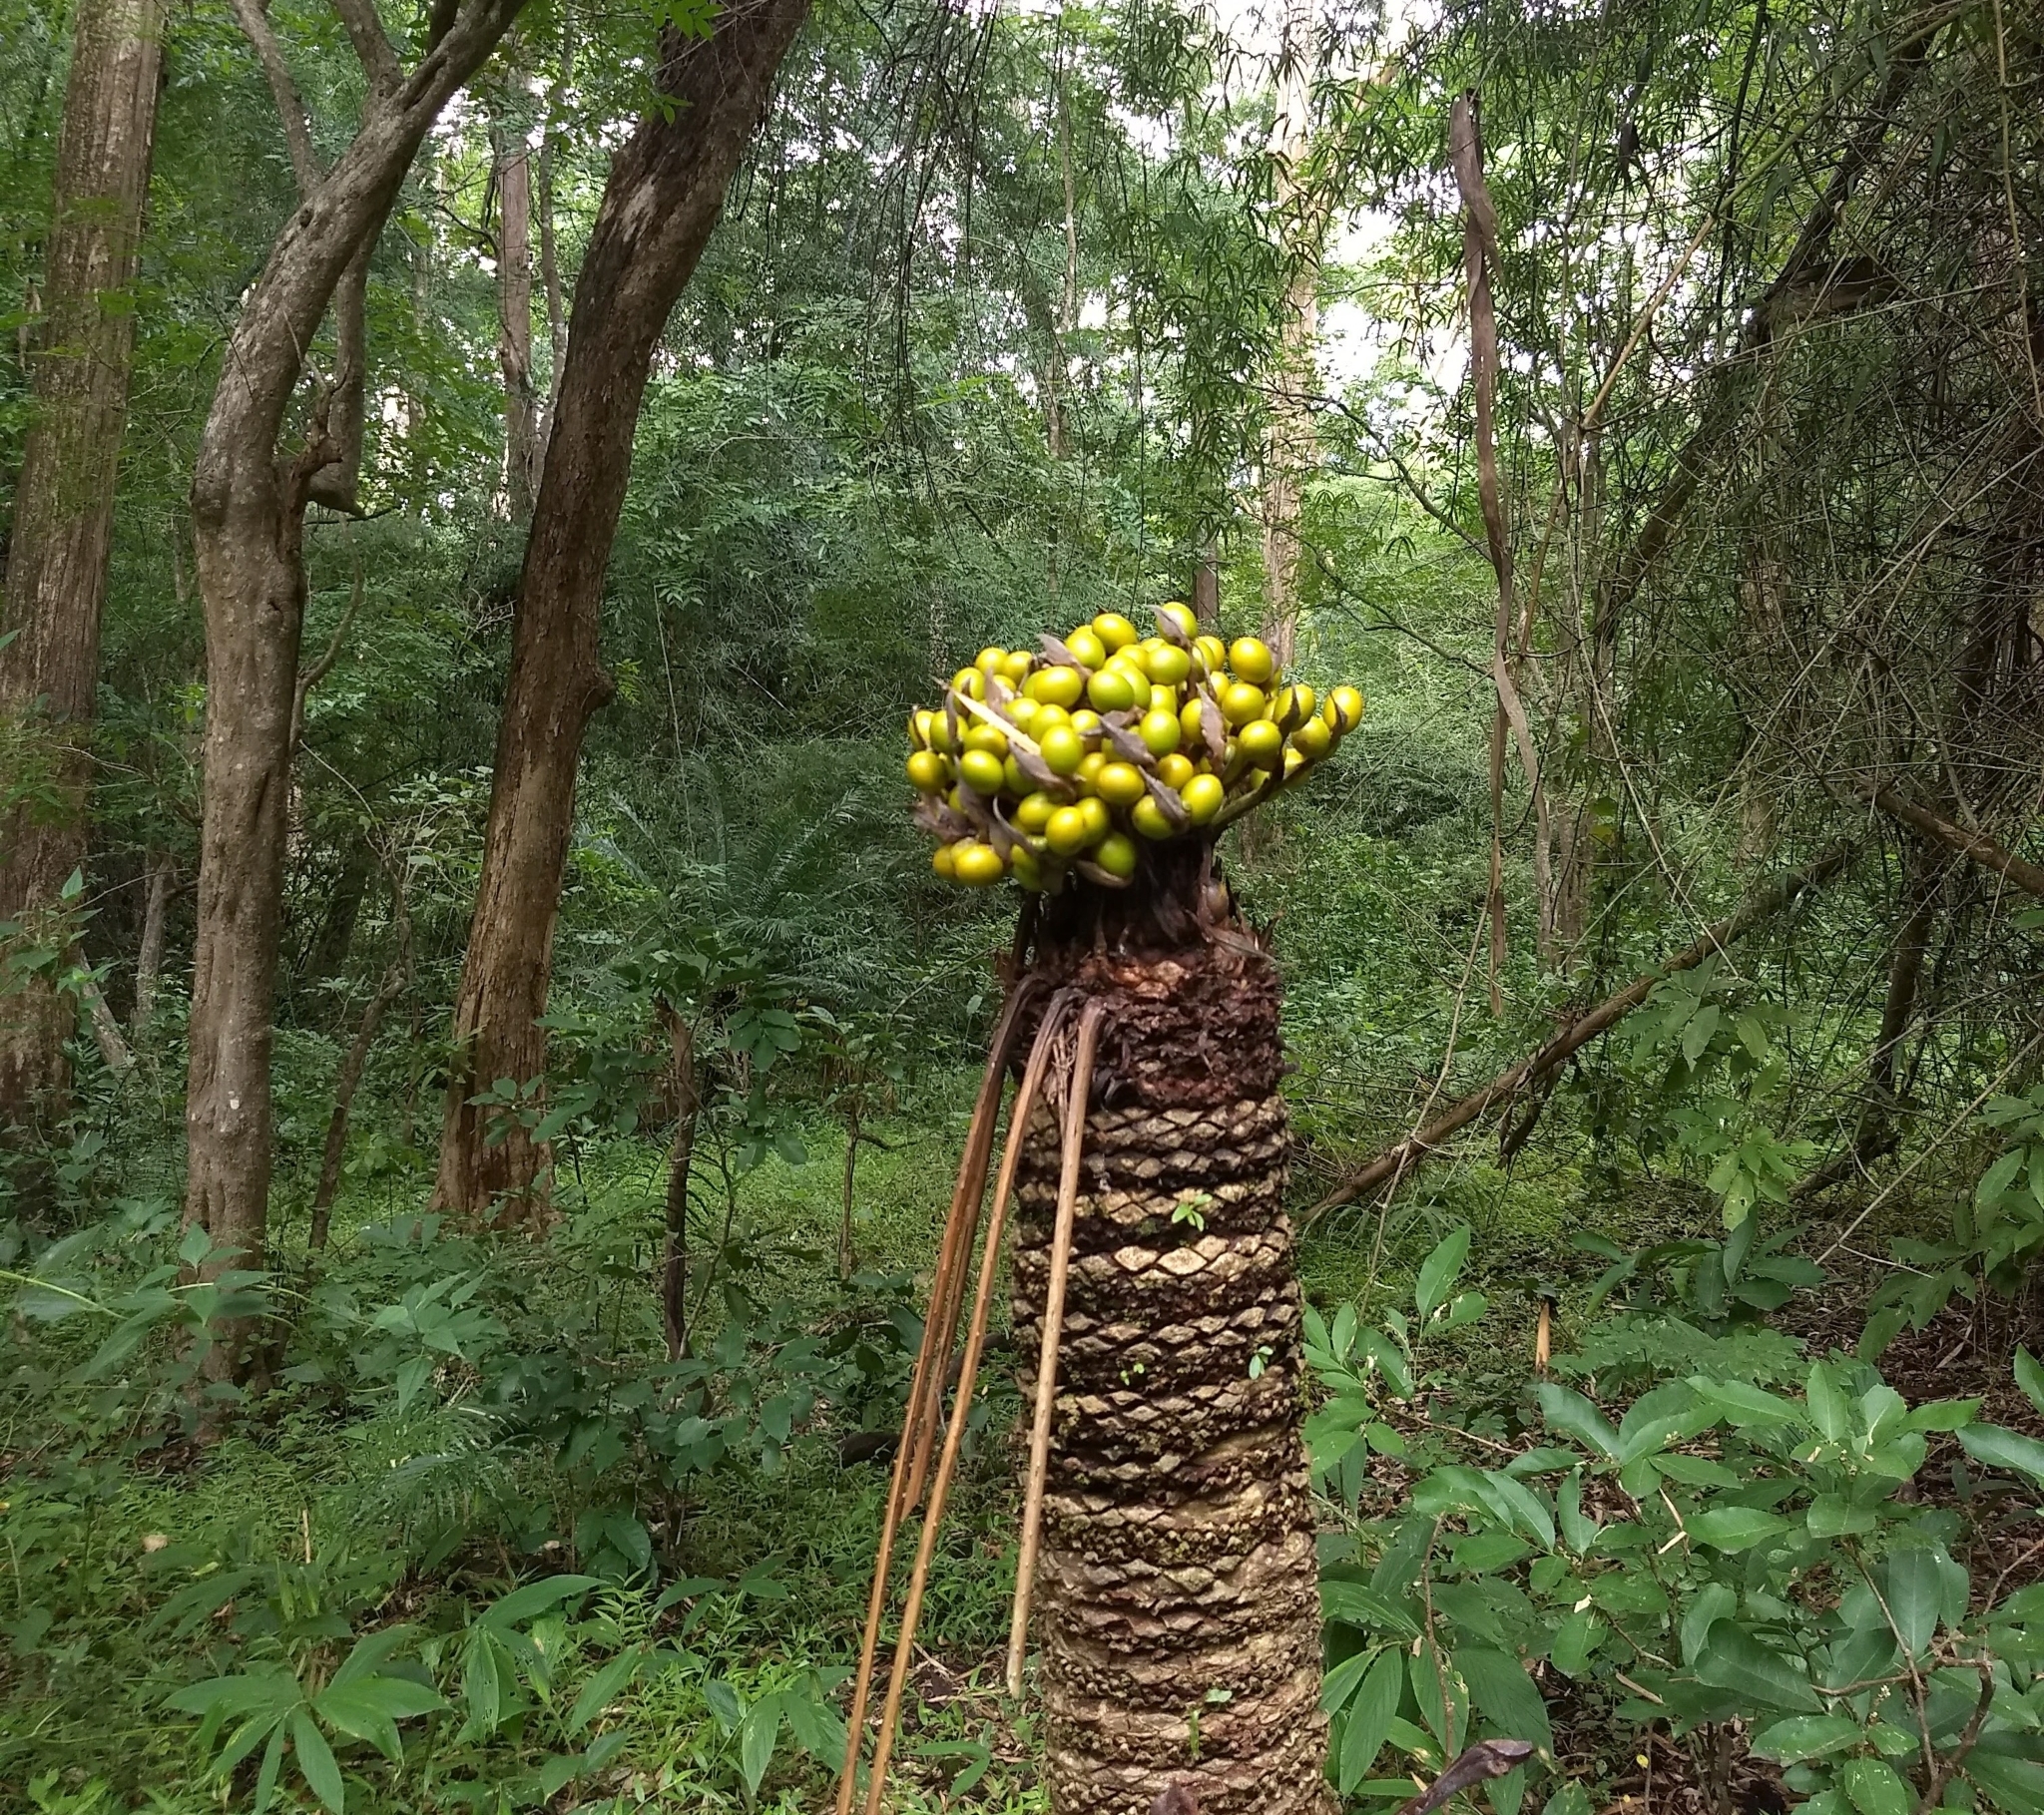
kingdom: Plantae
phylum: Tracheophyta
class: Cycadopsida
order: Cycadales
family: Cycadaceae
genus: Cycas
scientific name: Cycas circinalis
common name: Queen sago
